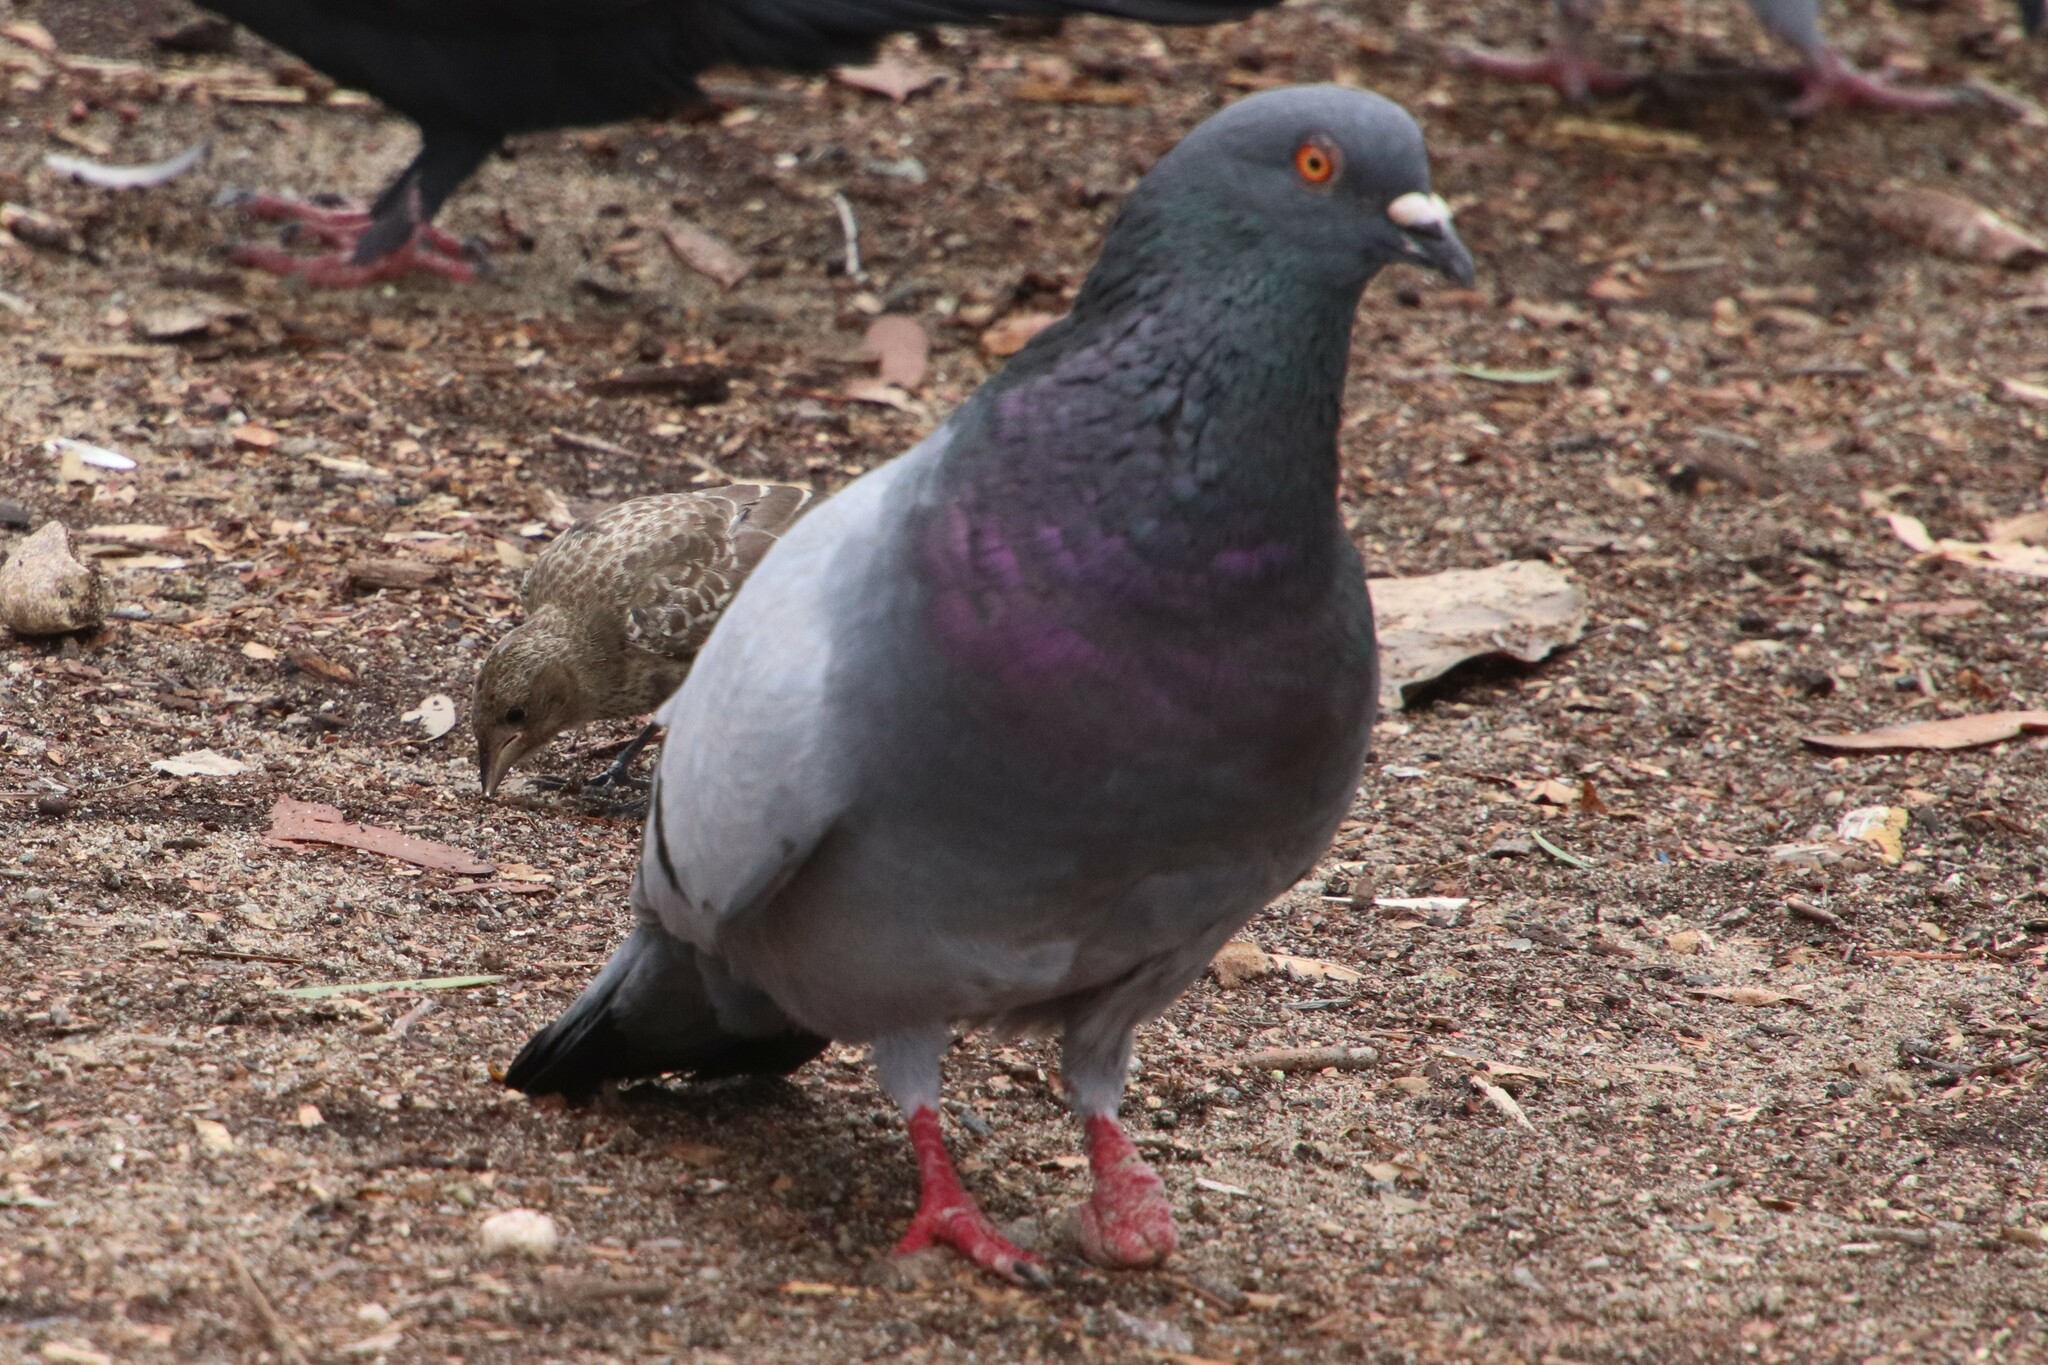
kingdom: Animalia
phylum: Chordata
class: Aves
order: Columbiformes
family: Columbidae
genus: Columba
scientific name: Columba livia
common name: Rock pigeon
